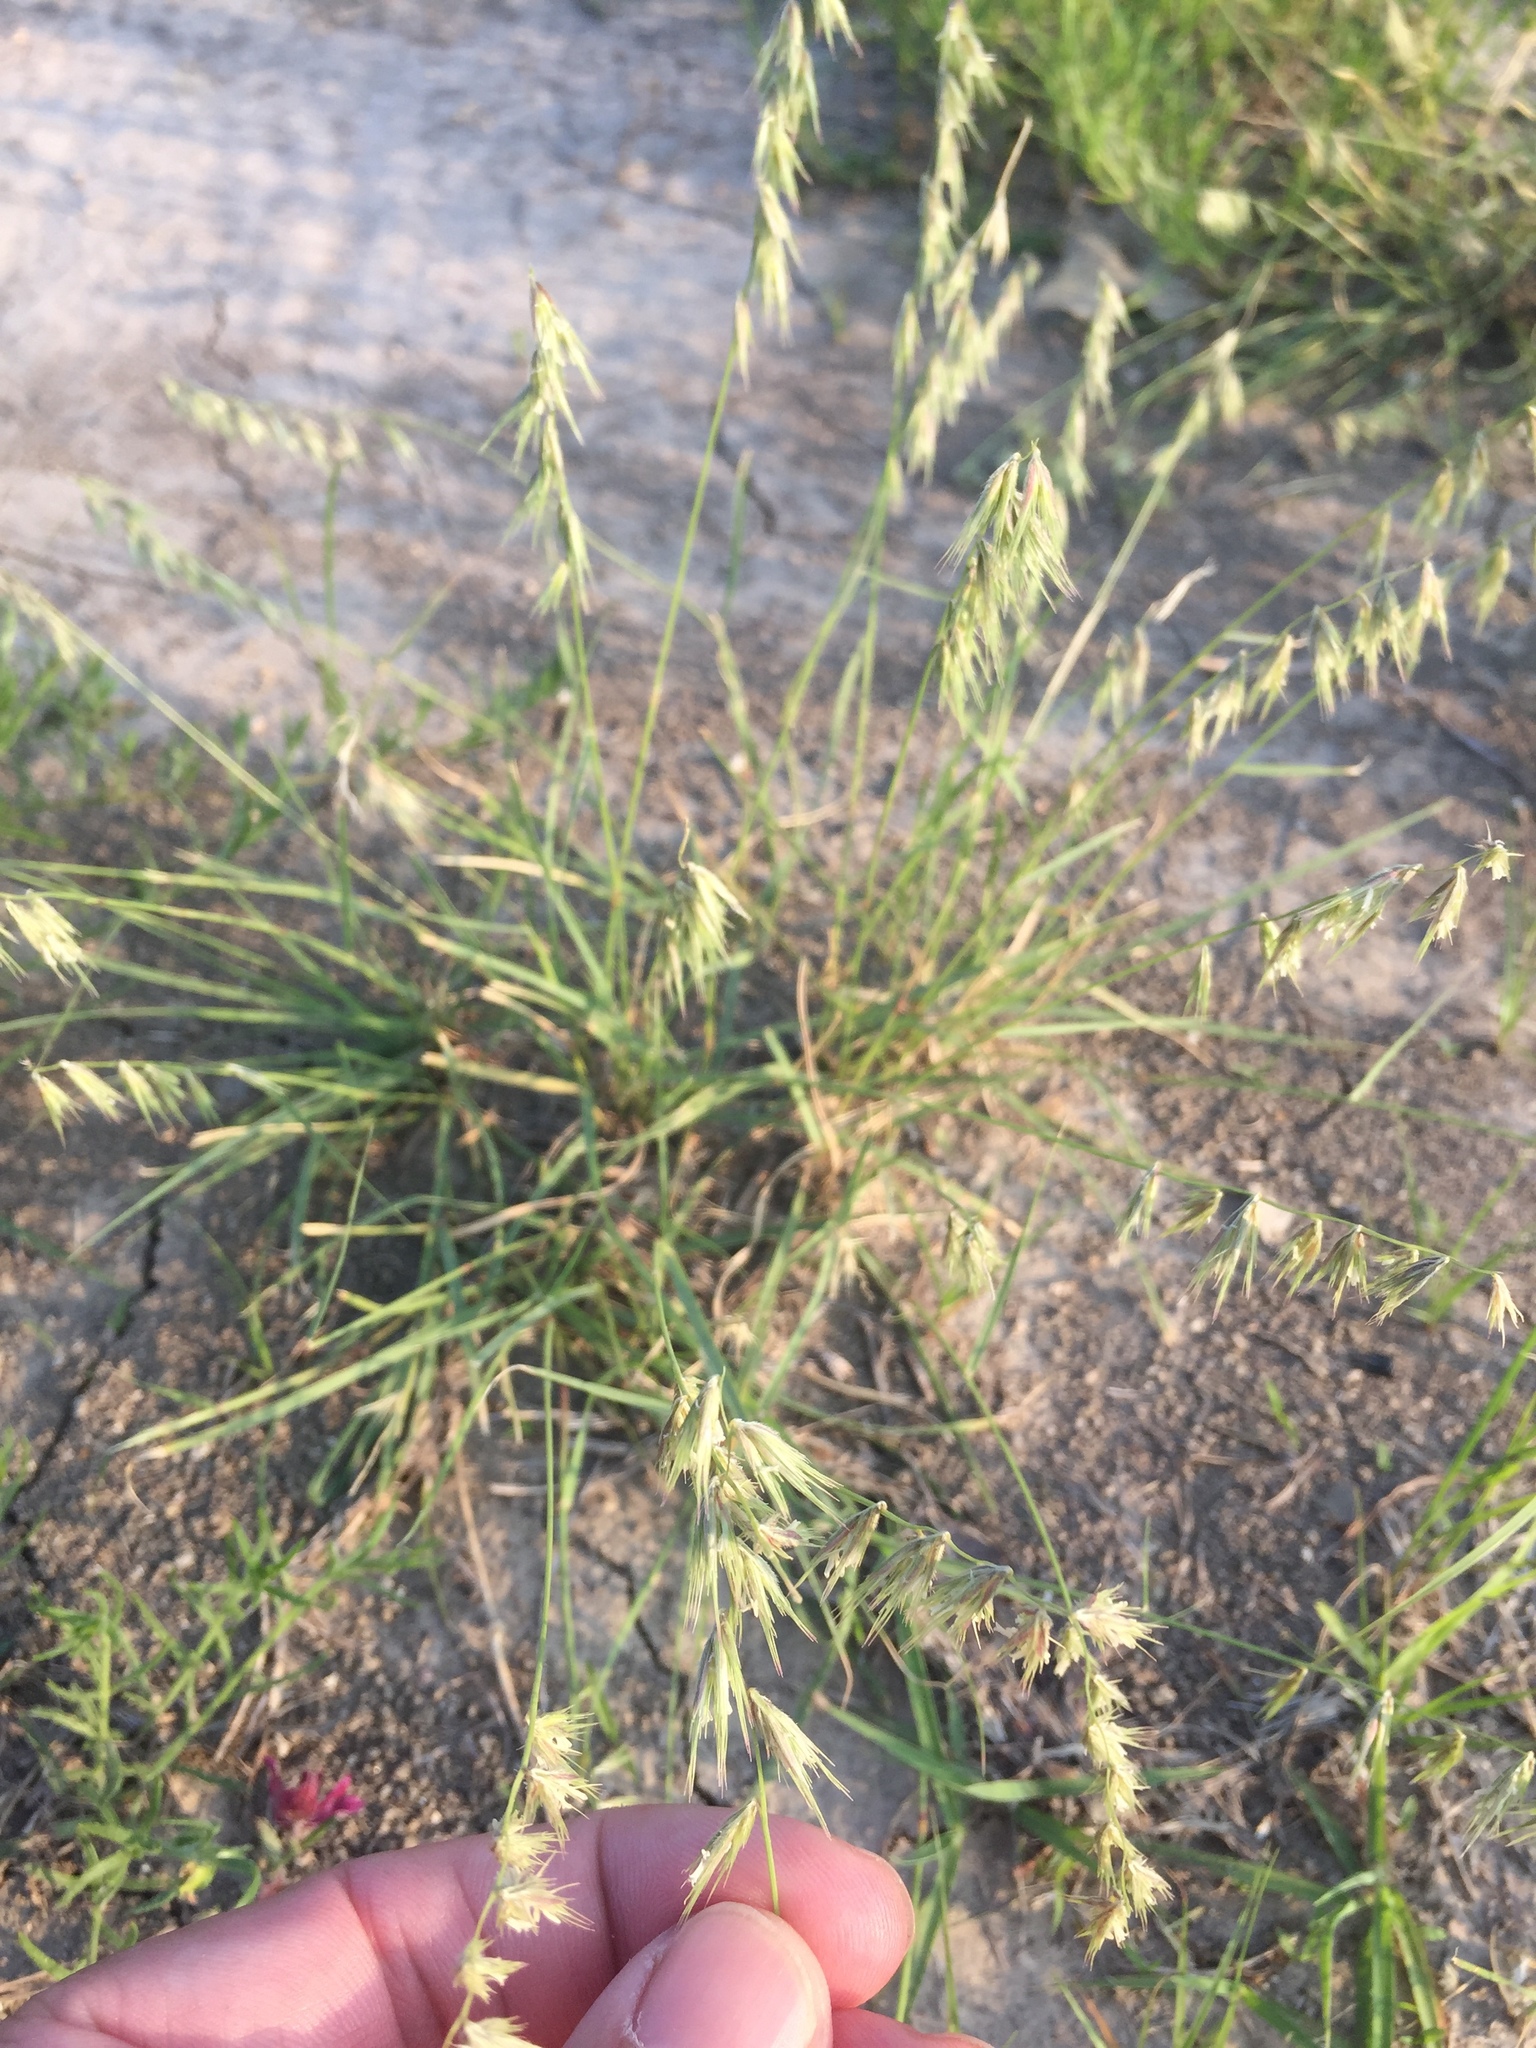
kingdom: Plantae
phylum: Tracheophyta
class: Liliopsida
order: Poales
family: Poaceae
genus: Bouteloua
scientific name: Bouteloua rigidiseta
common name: Texas grama
